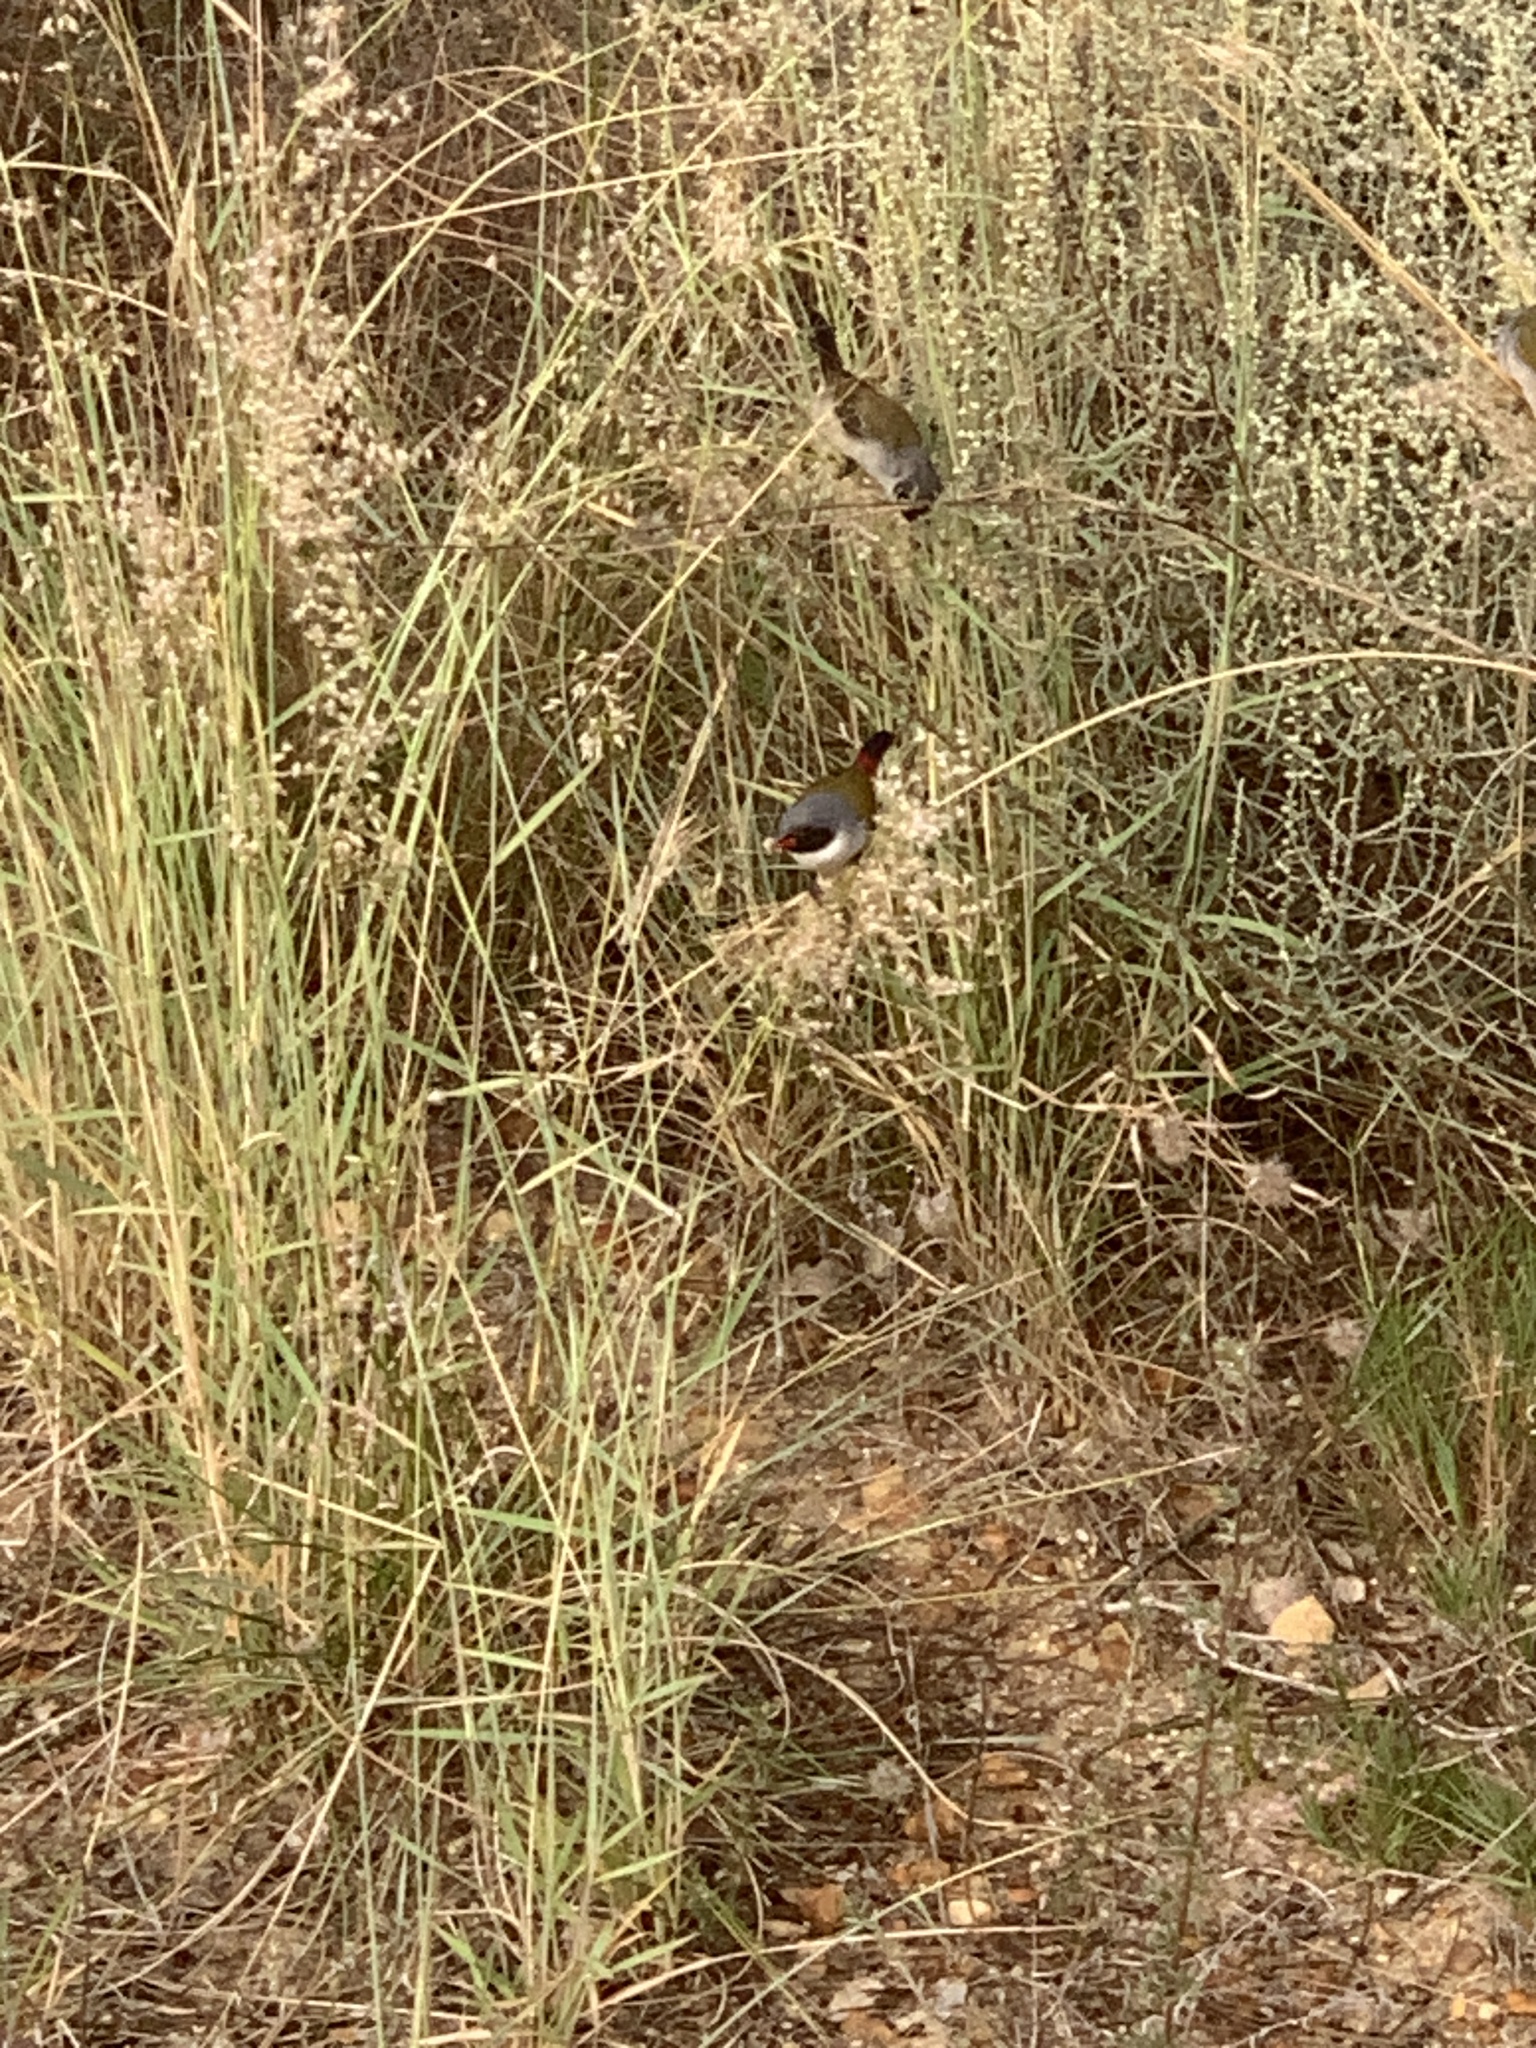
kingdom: Animalia
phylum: Chordata
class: Aves
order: Passeriformes
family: Estrildidae
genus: Coccopygia
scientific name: Coccopygia melanotis
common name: Swee waxbill
